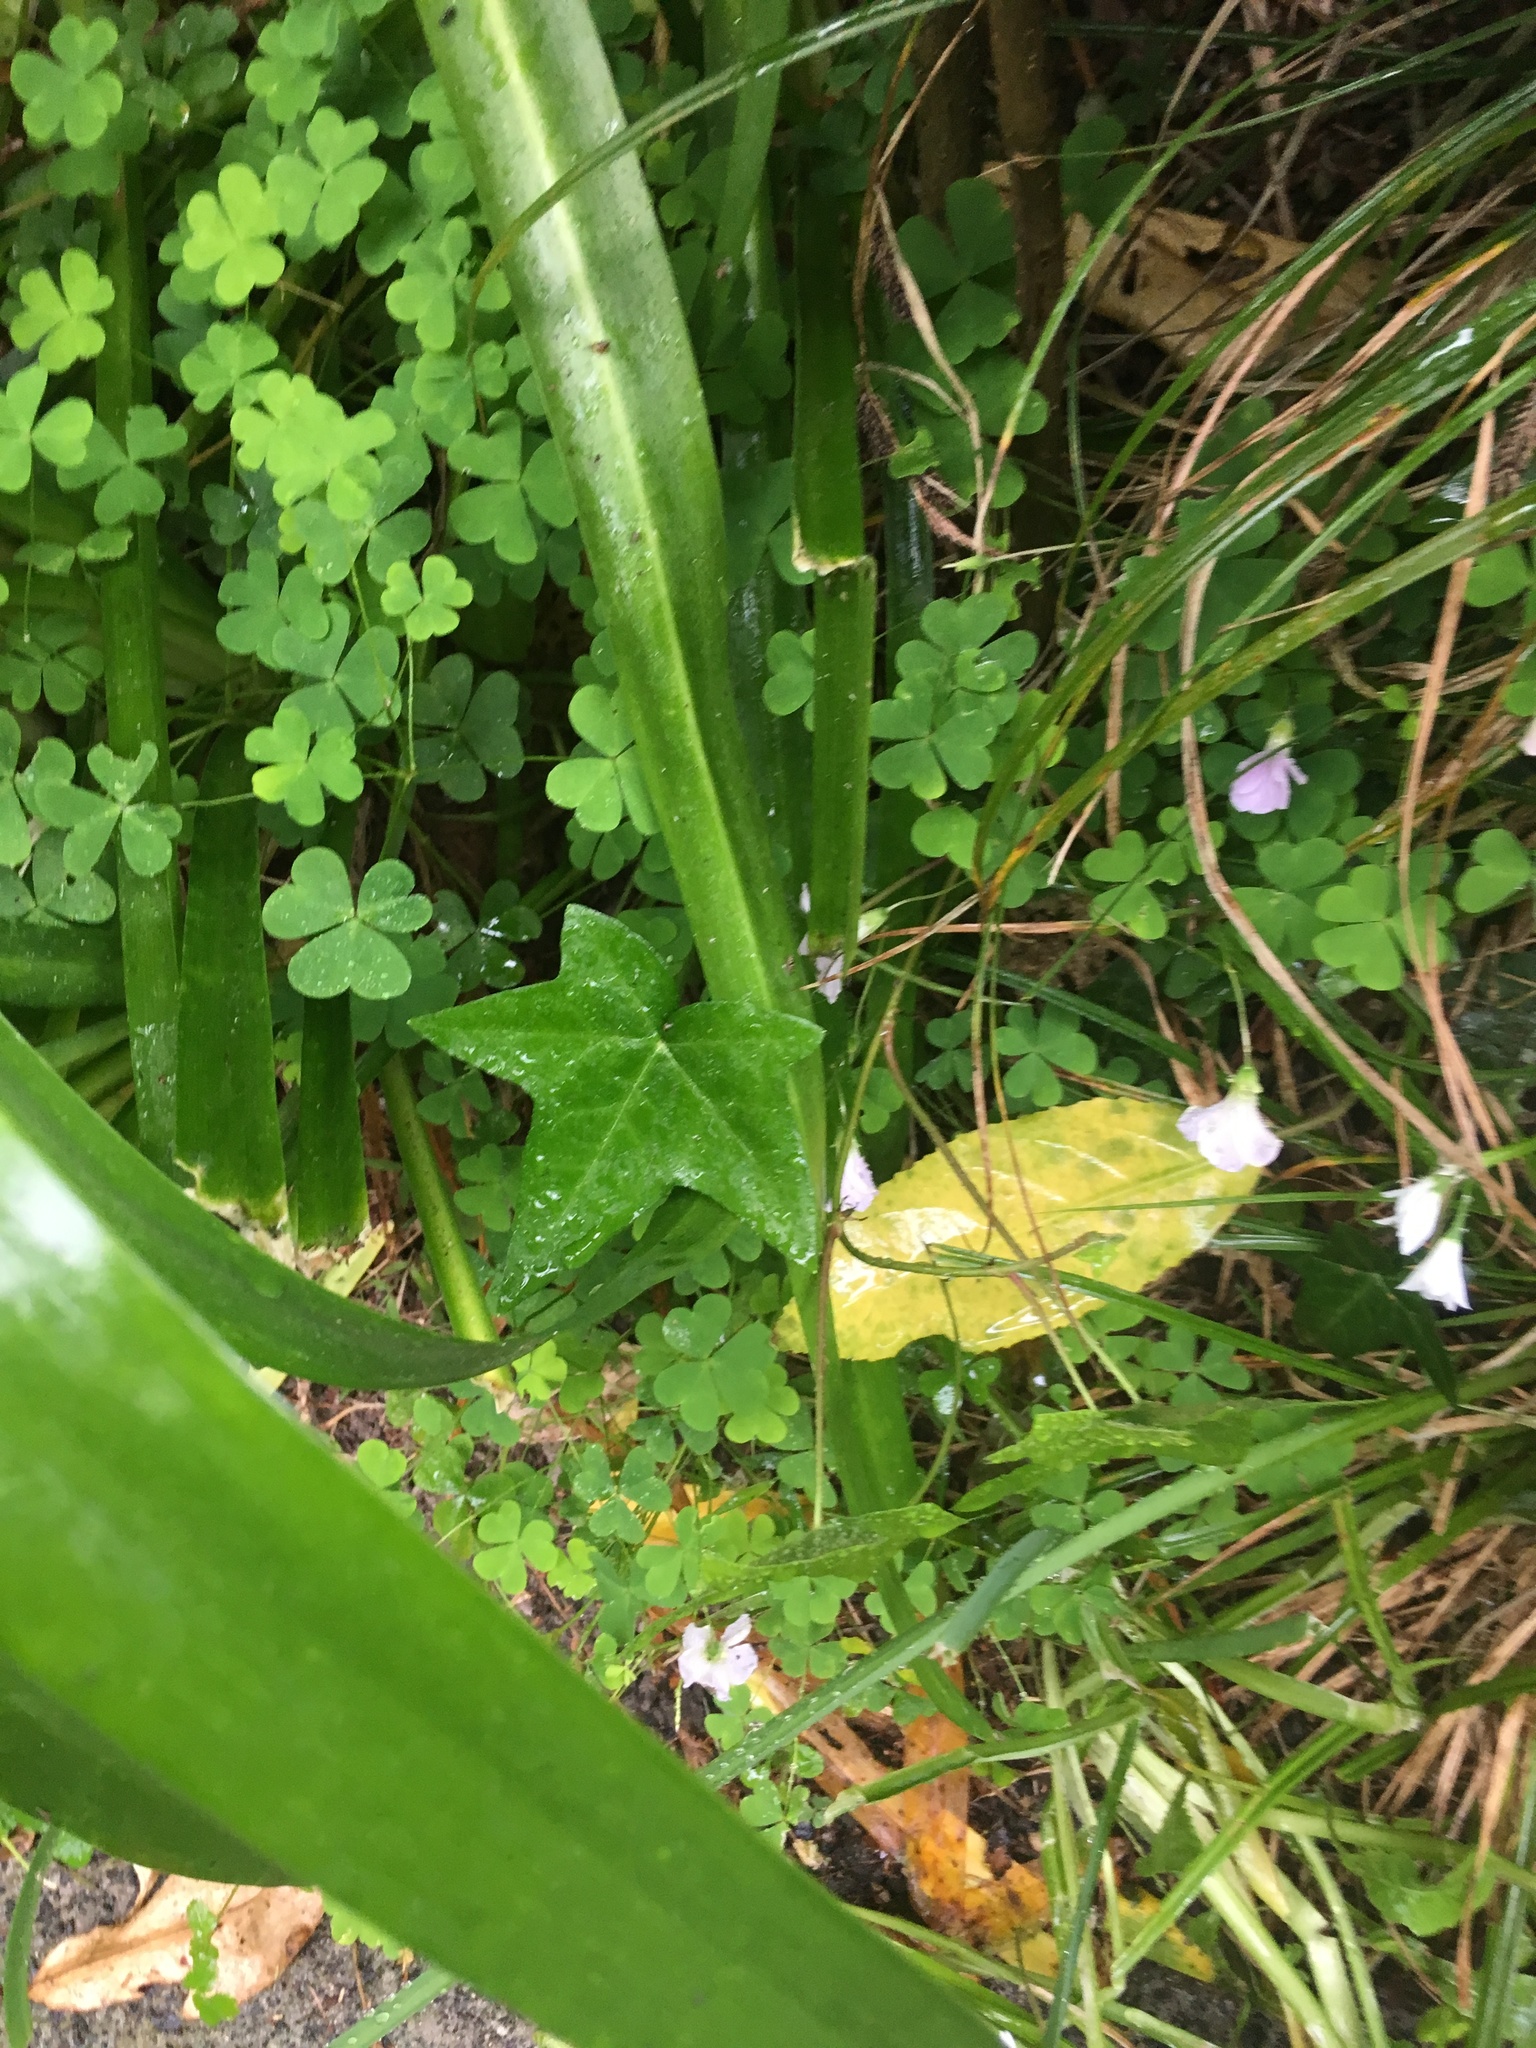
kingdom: Plantae
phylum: Tracheophyta
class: Magnoliopsida
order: Apiales
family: Araliaceae
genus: Hedera
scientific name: Hedera helix
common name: Ivy
